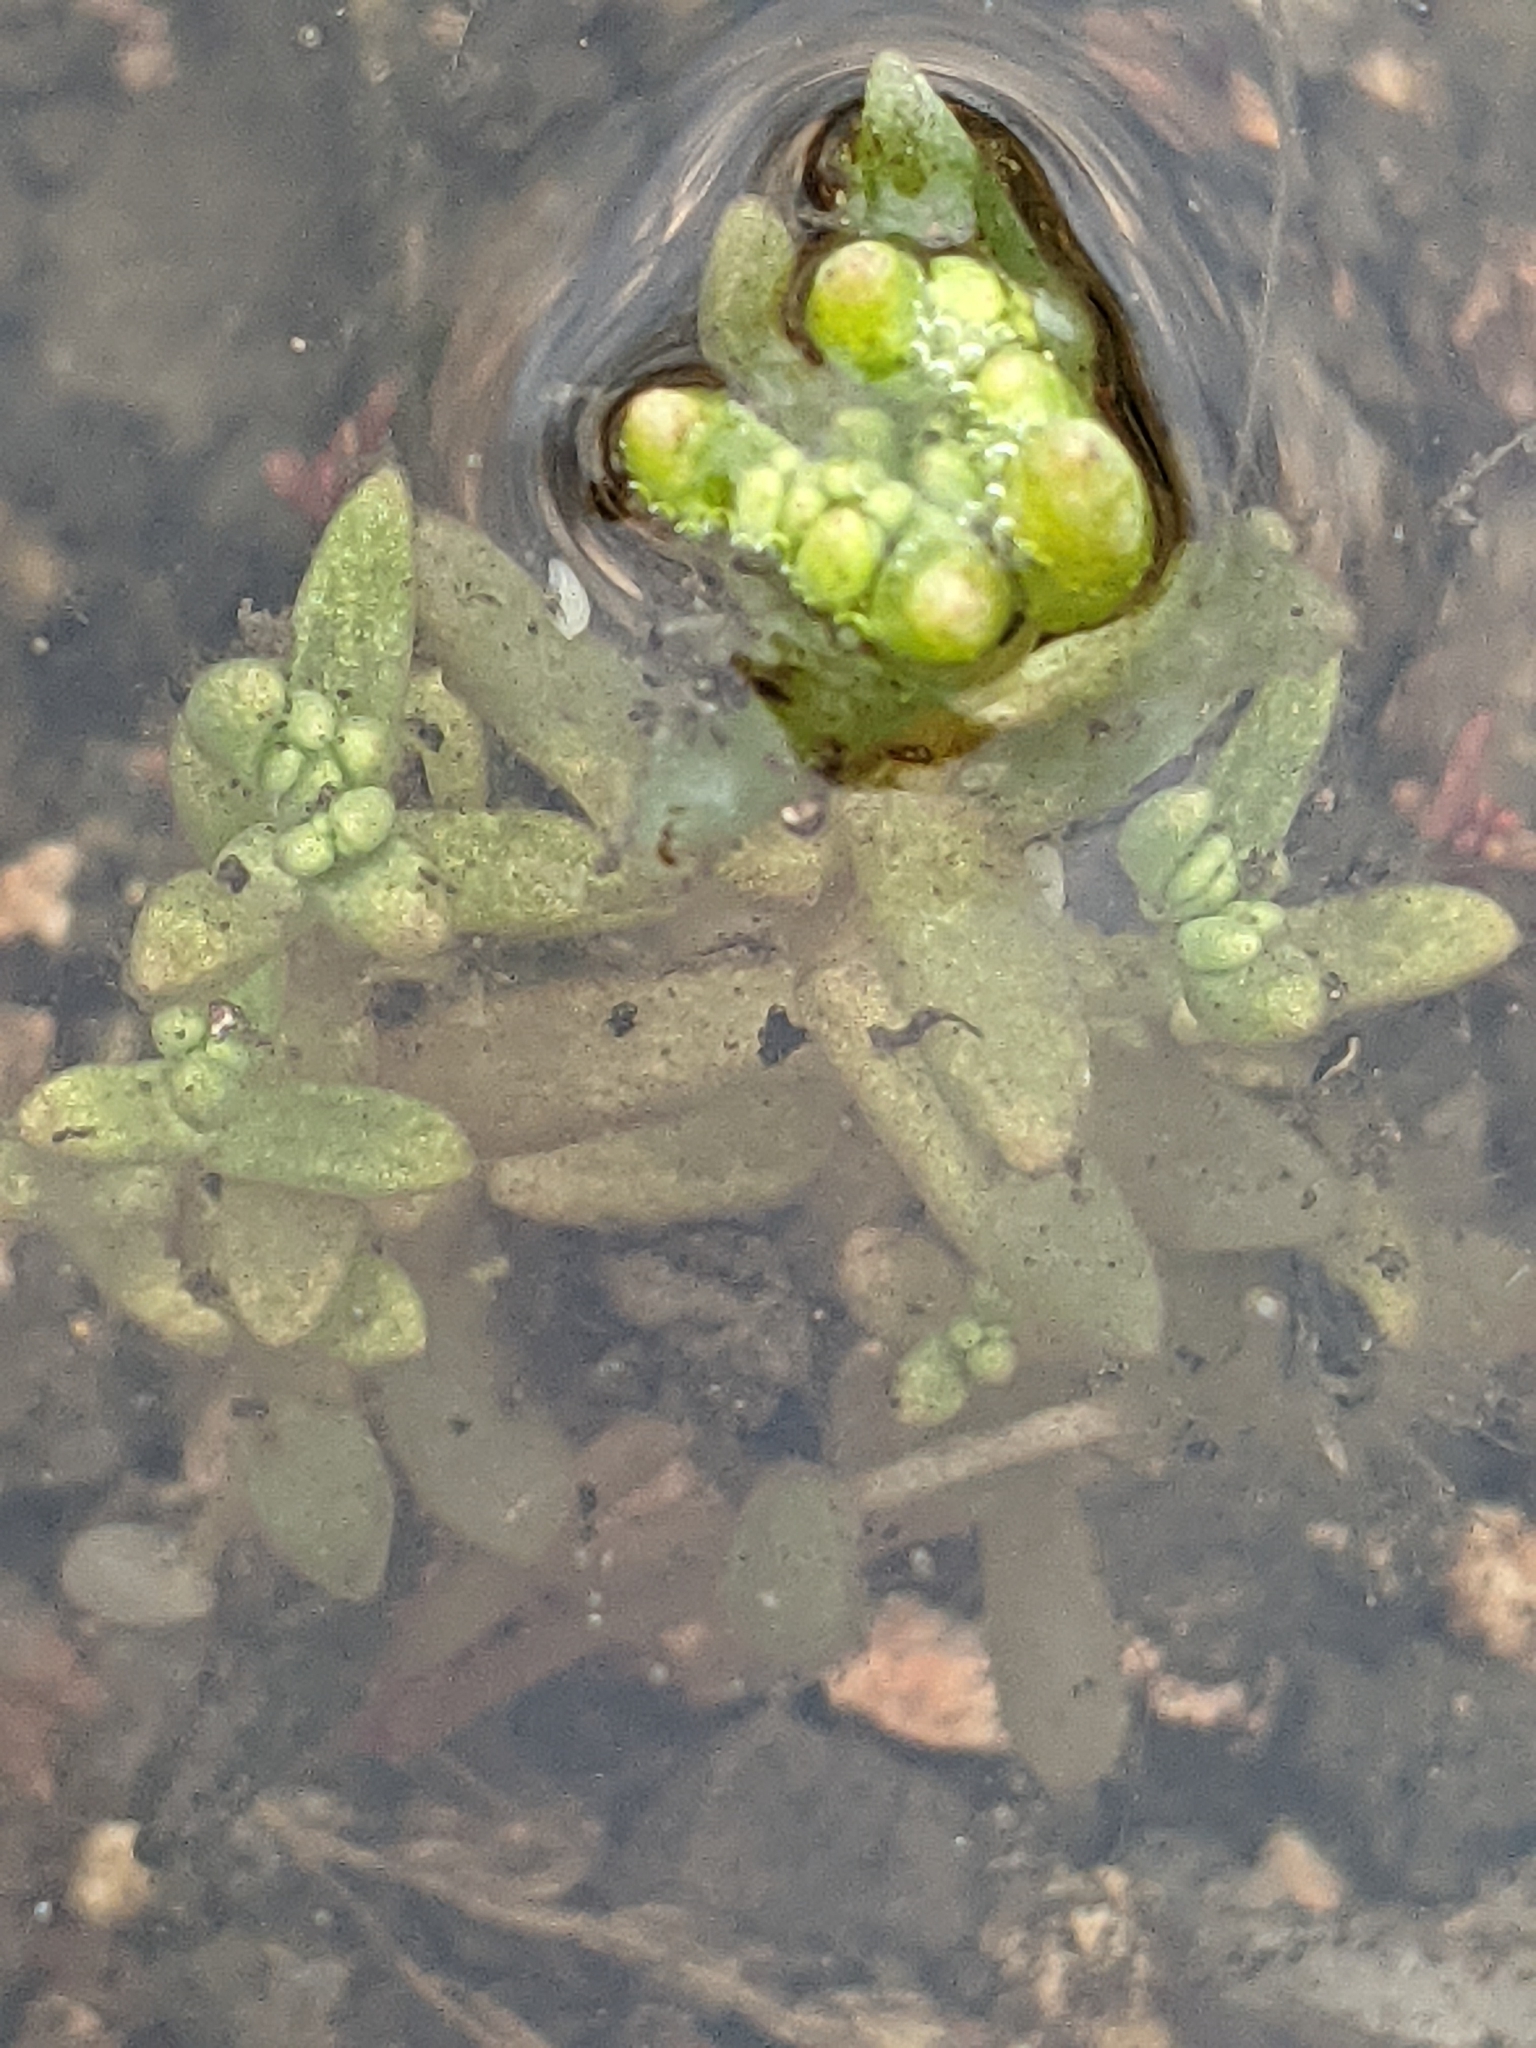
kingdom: Plantae
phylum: Tracheophyta
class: Magnoliopsida
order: Saxifragales
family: Crassulaceae
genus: Crassula
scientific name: Crassula aquatica
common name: Pigmyweed
